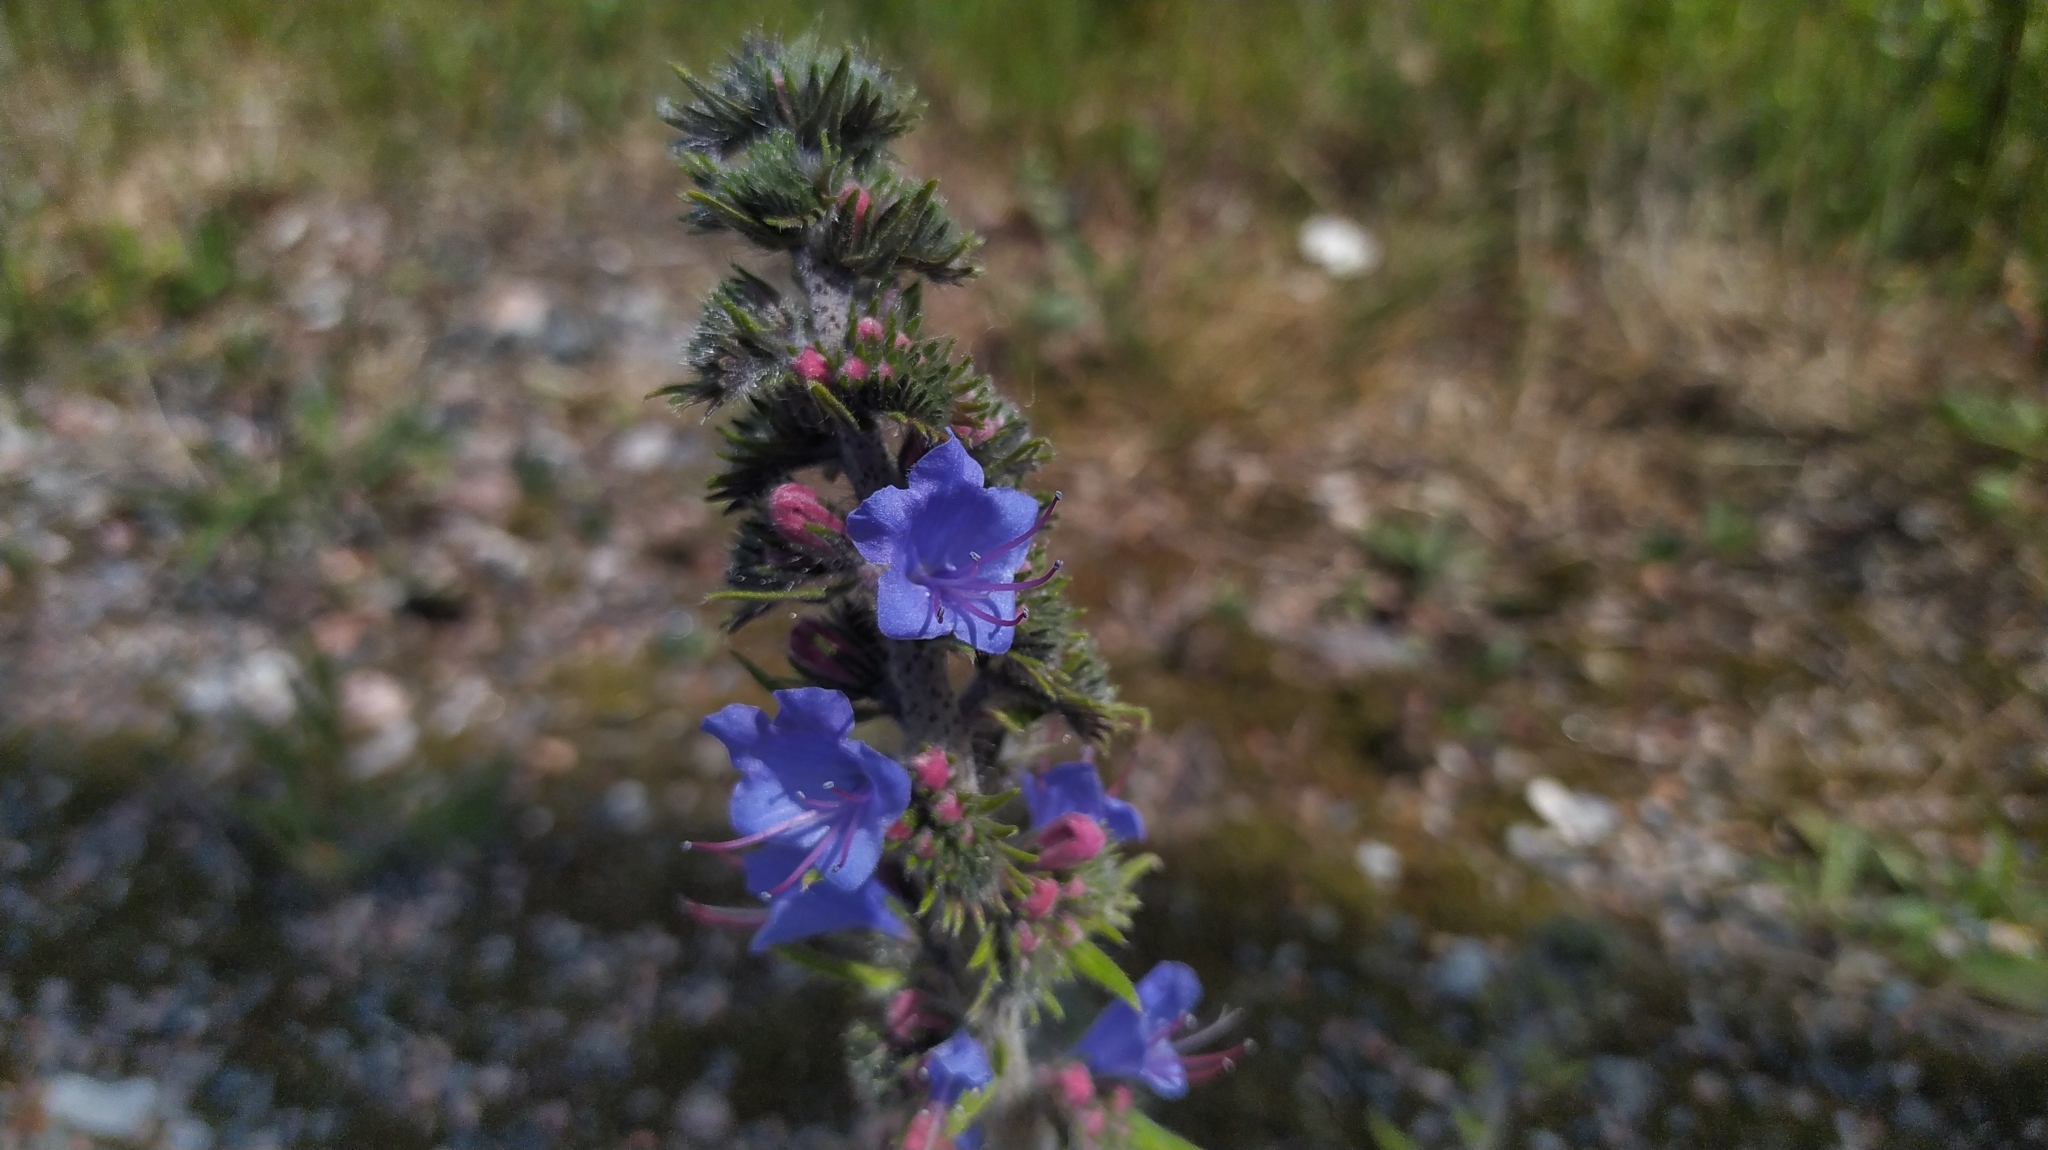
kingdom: Plantae
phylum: Tracheophyta
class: Magnoliopsida
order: Boraginales
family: Boraginaceae
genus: Echium
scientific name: Echium vulgare
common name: Common viper's bugloss
